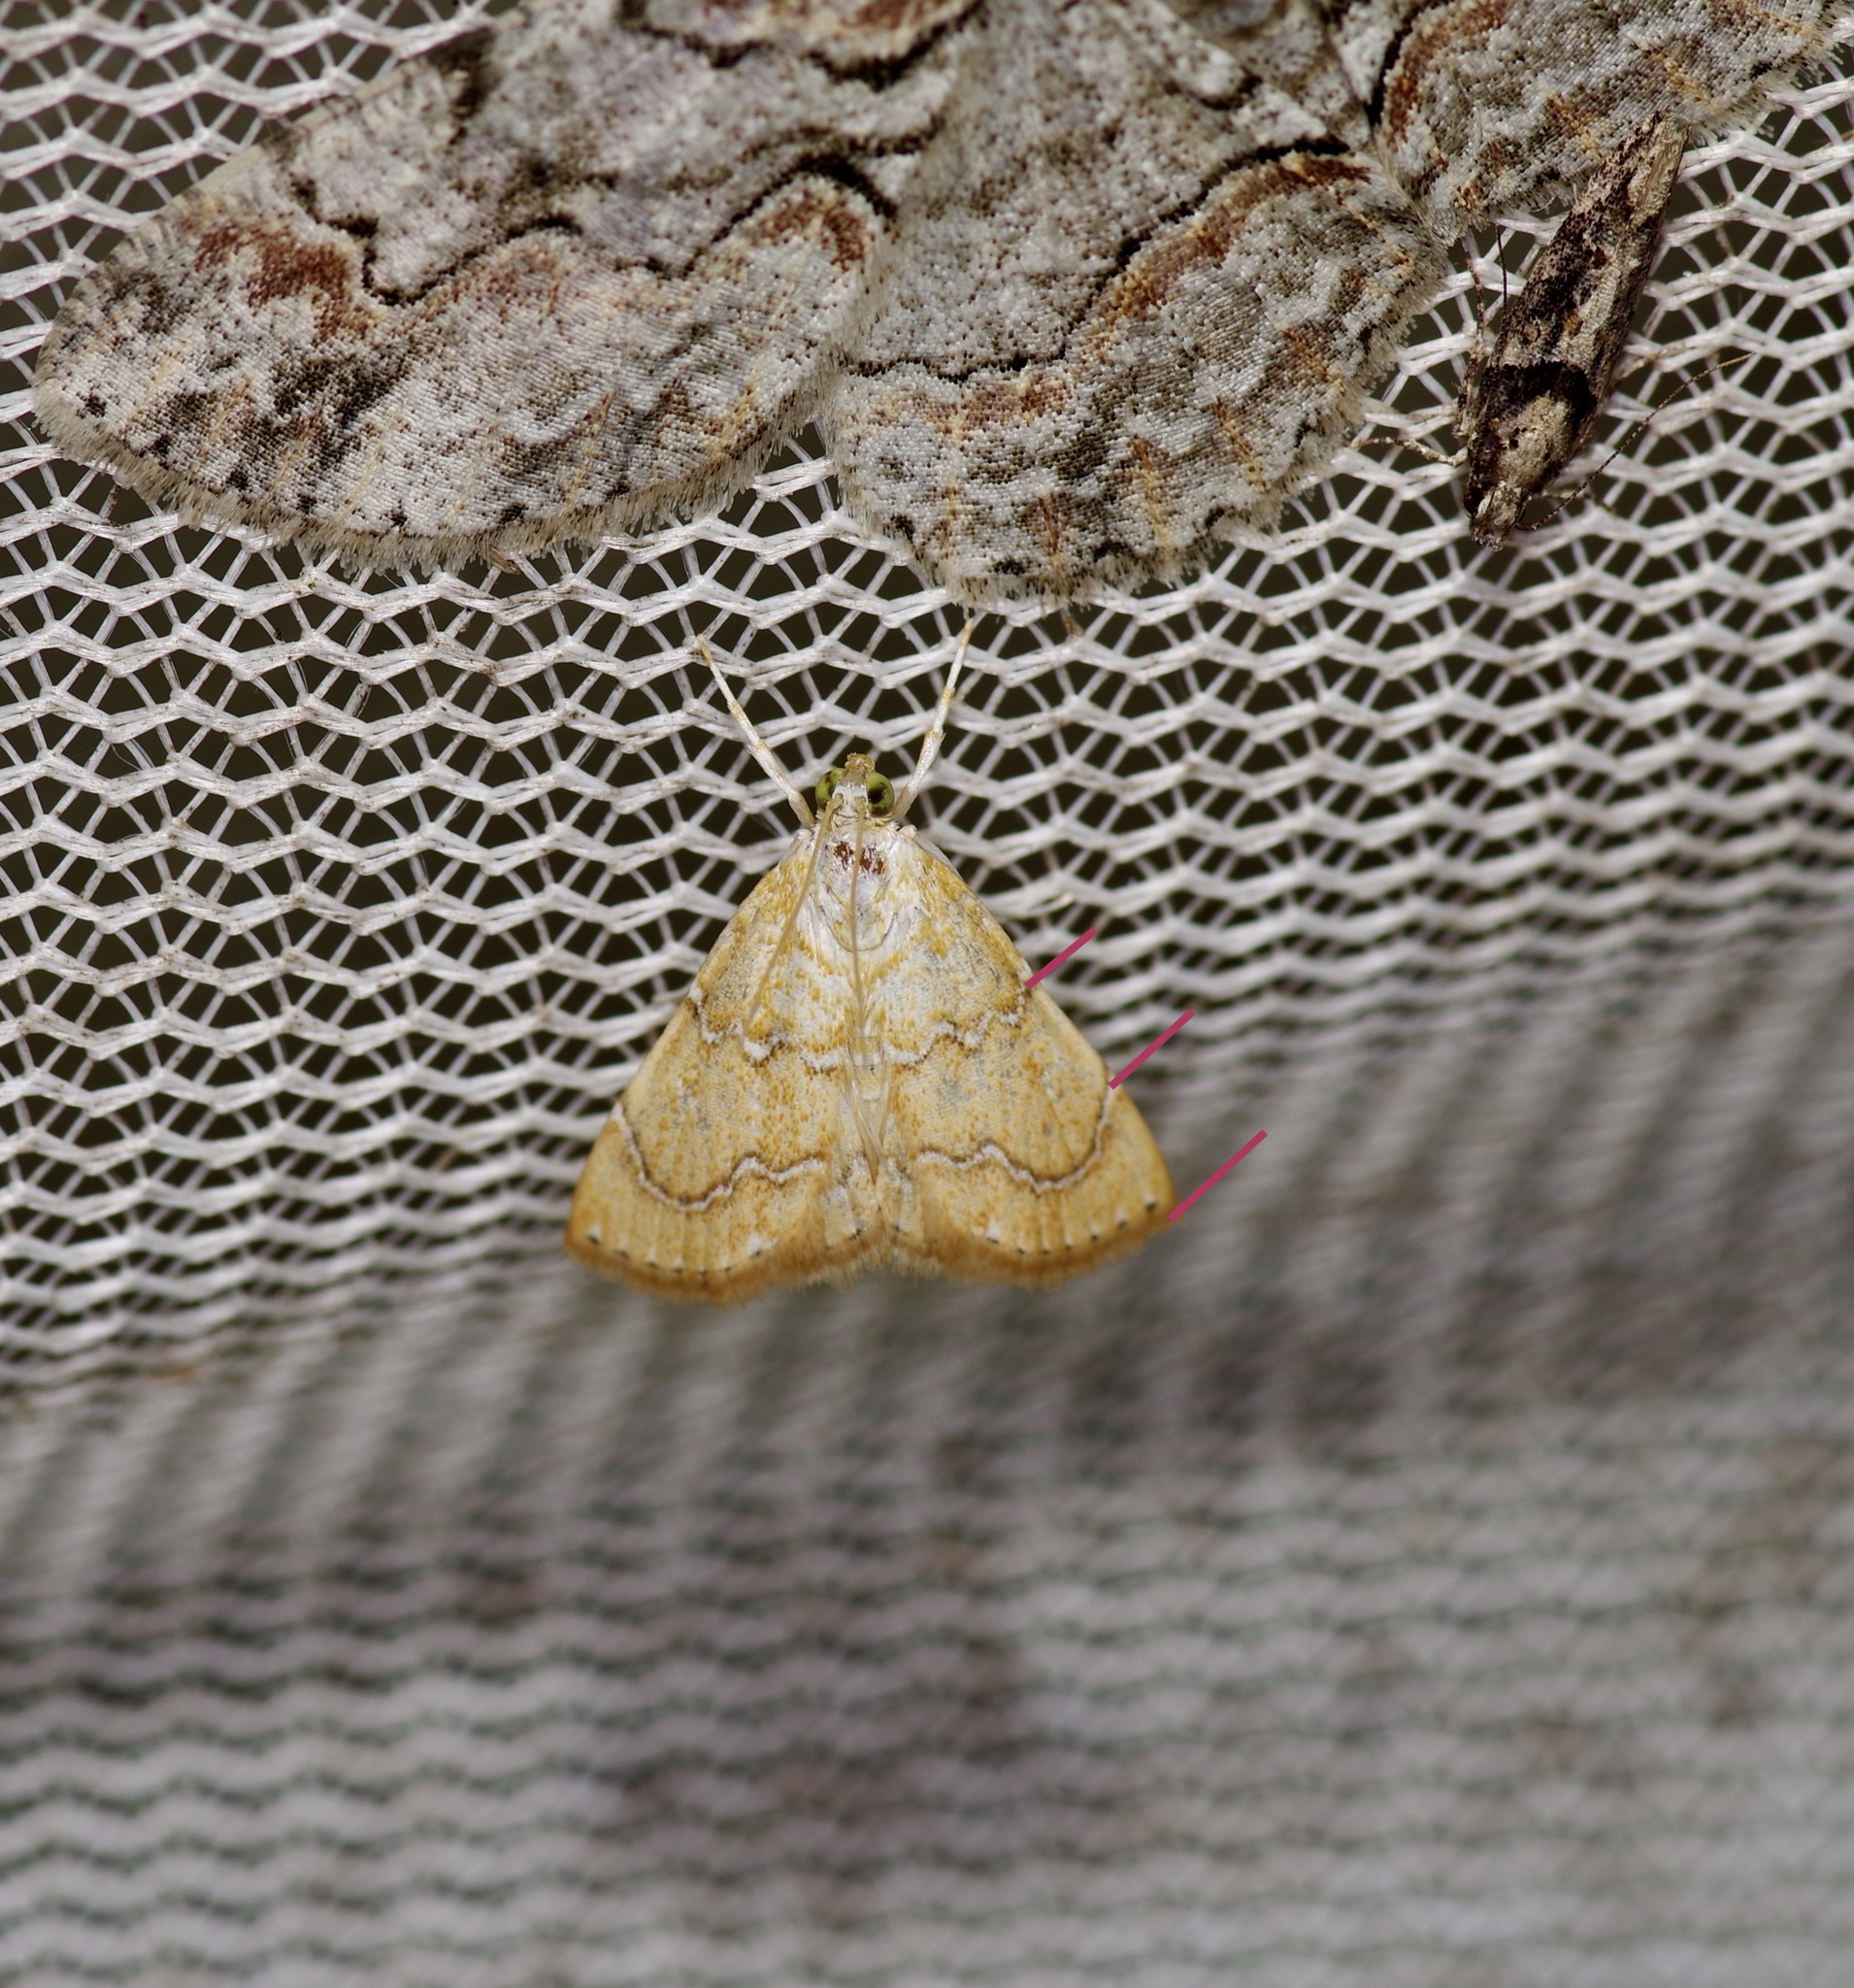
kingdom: Animalia
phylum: Arthropoda
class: Insecta
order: Lepidoptera
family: Crambidae
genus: Glaphyria
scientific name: Glaphyria sesquistrialis
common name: White-roped glaphyria
